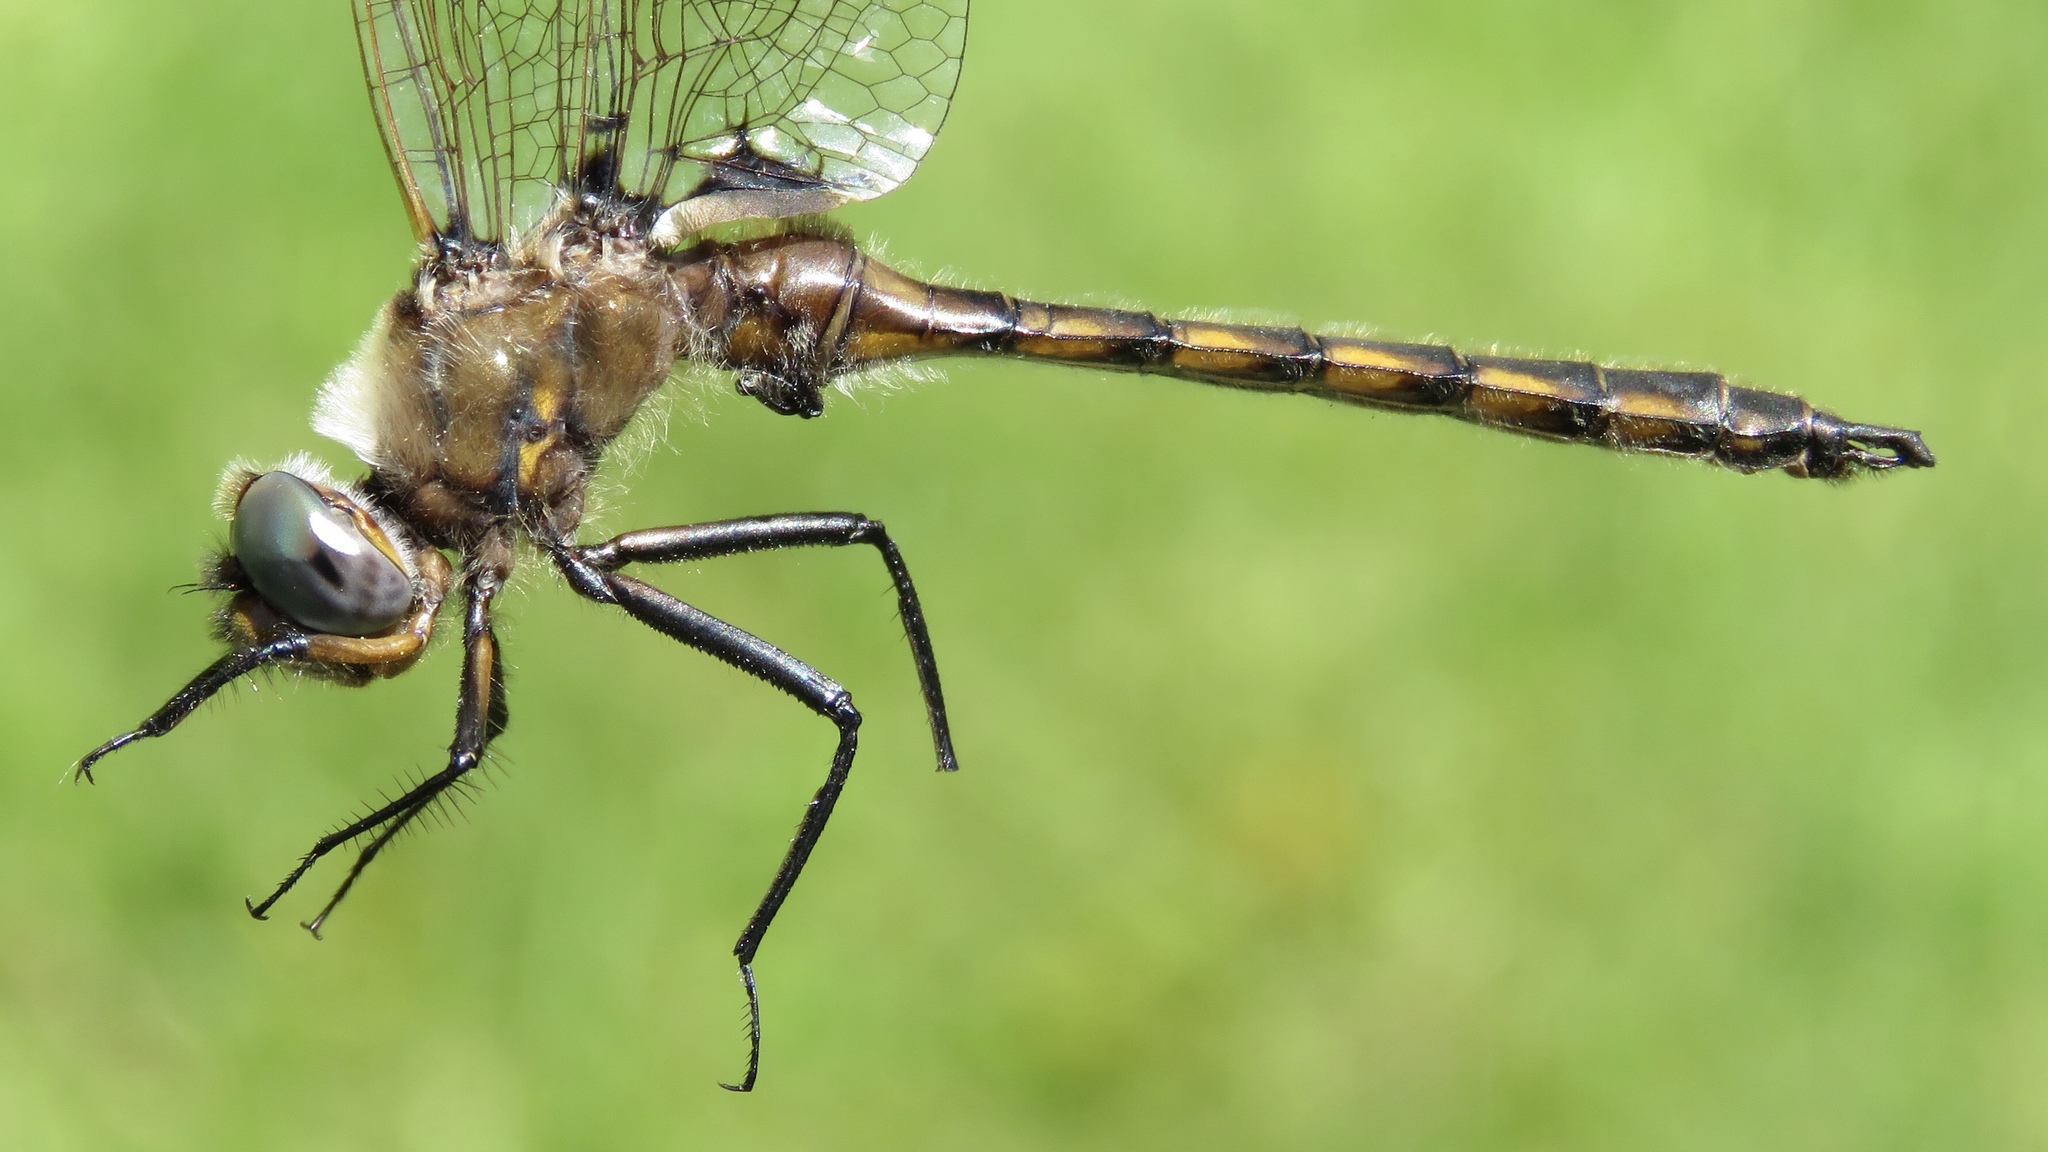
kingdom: Animalia
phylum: Arthropoda
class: Insecta
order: Odonata
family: Corduliidae
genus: Epitheca
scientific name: Epitheca canis
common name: Beaverpond baskettail
